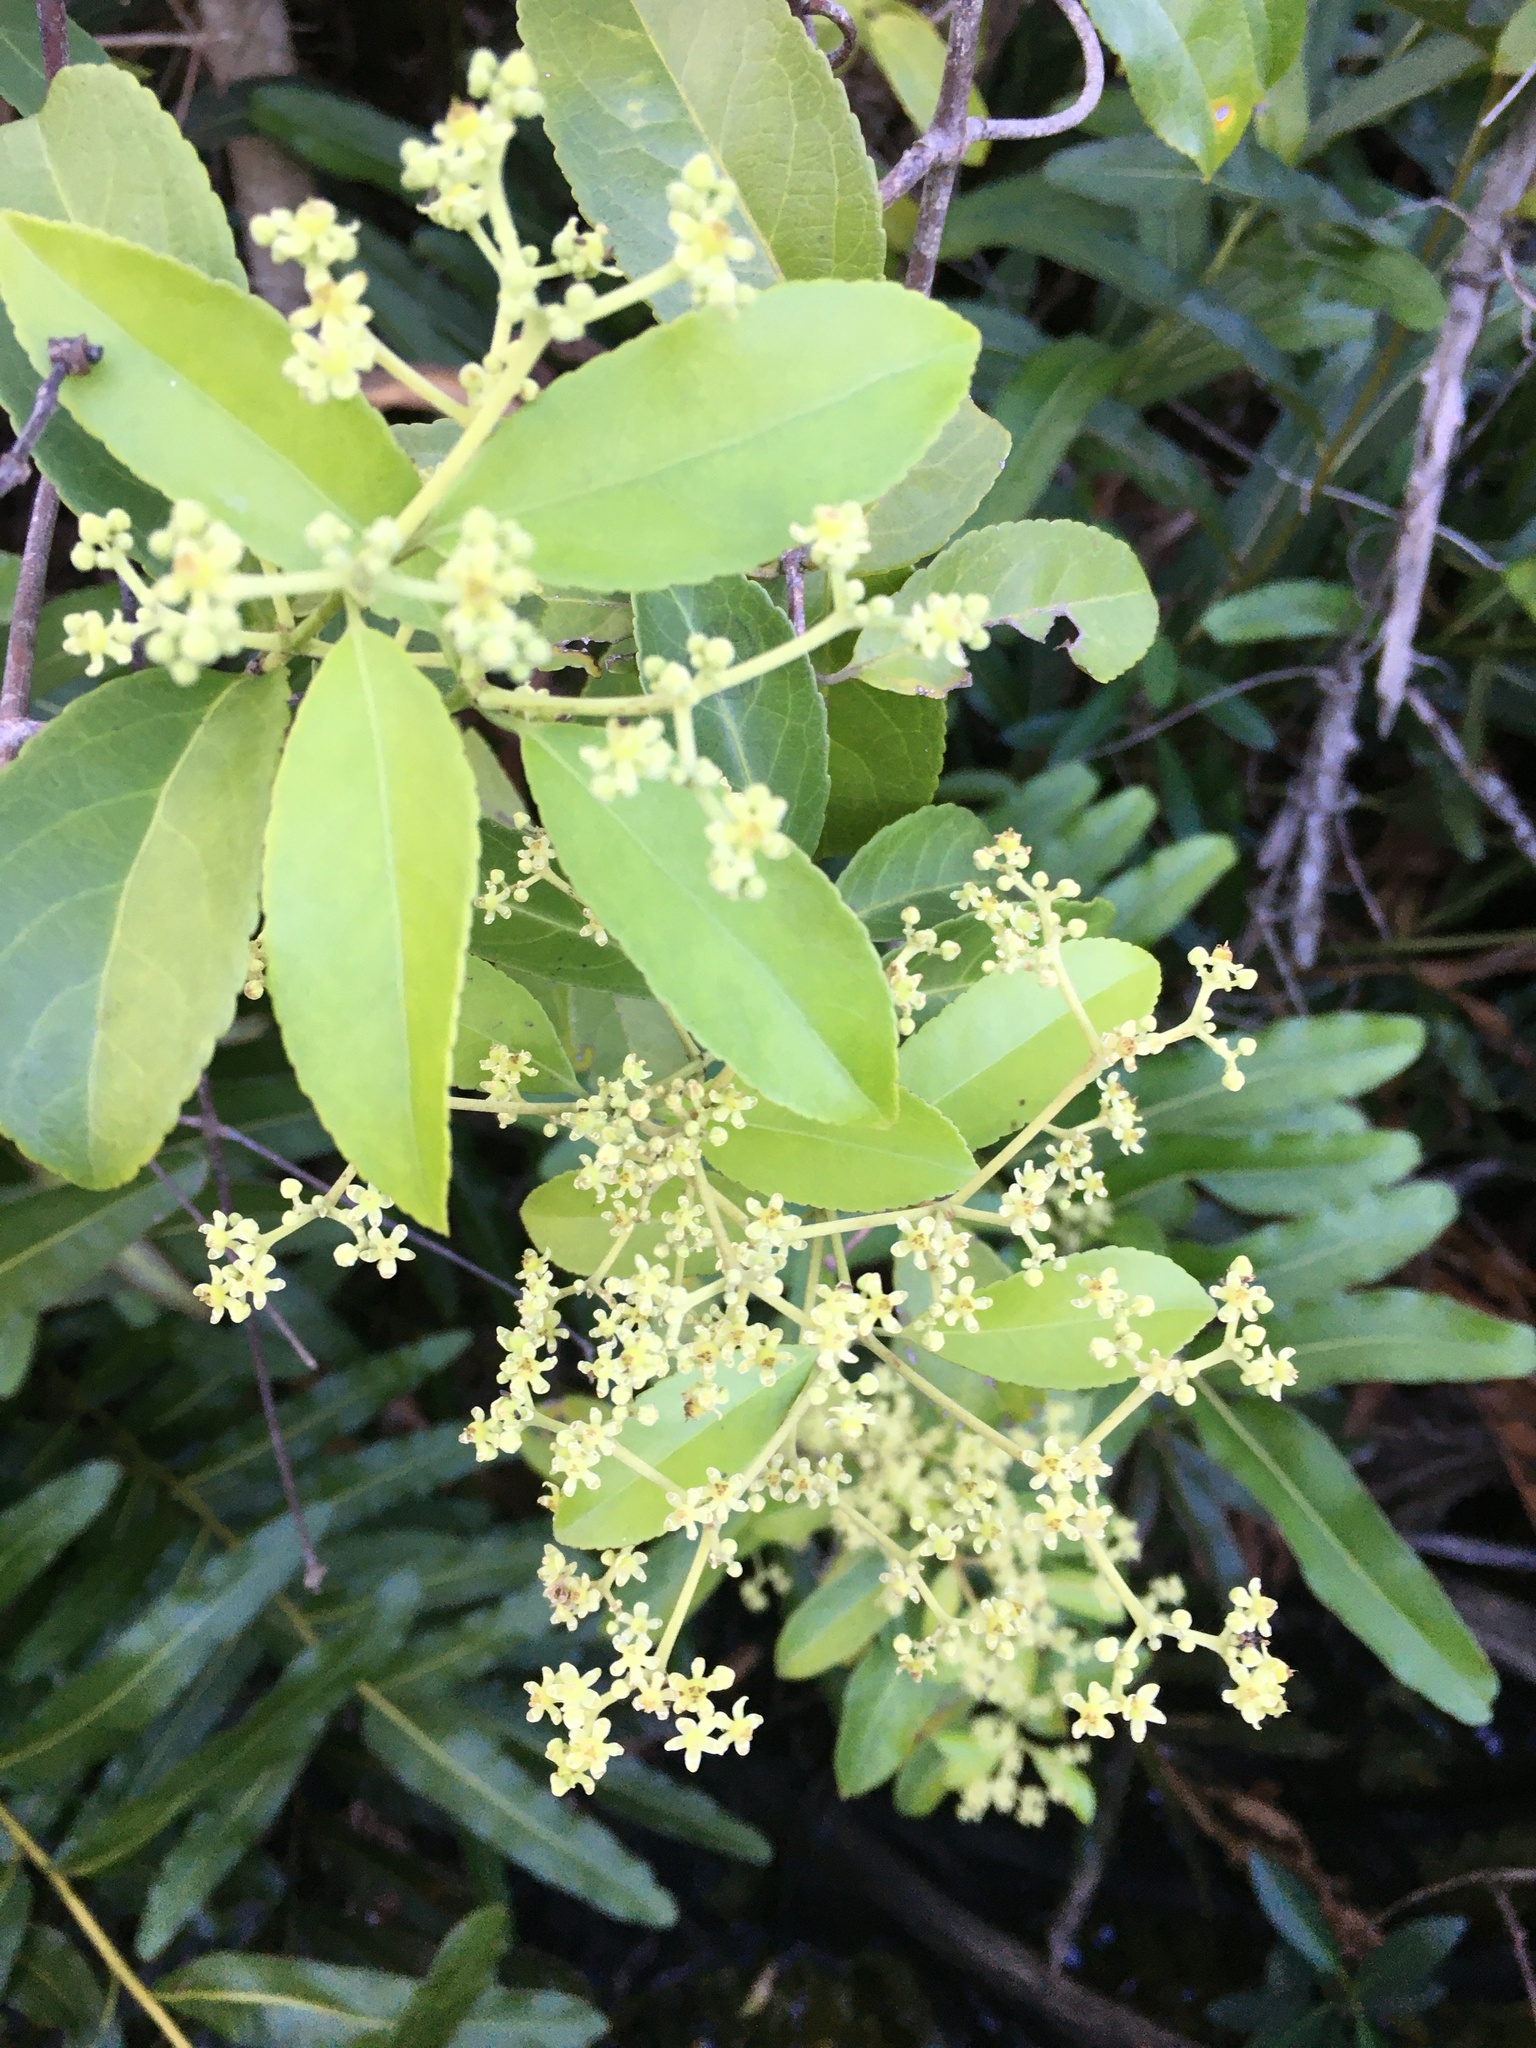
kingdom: Plantae
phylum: Tracheophyta
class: Magnoliopsida
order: Celastrales
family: Celastraceae
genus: Hippocratea
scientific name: Hippocratea volubilis
